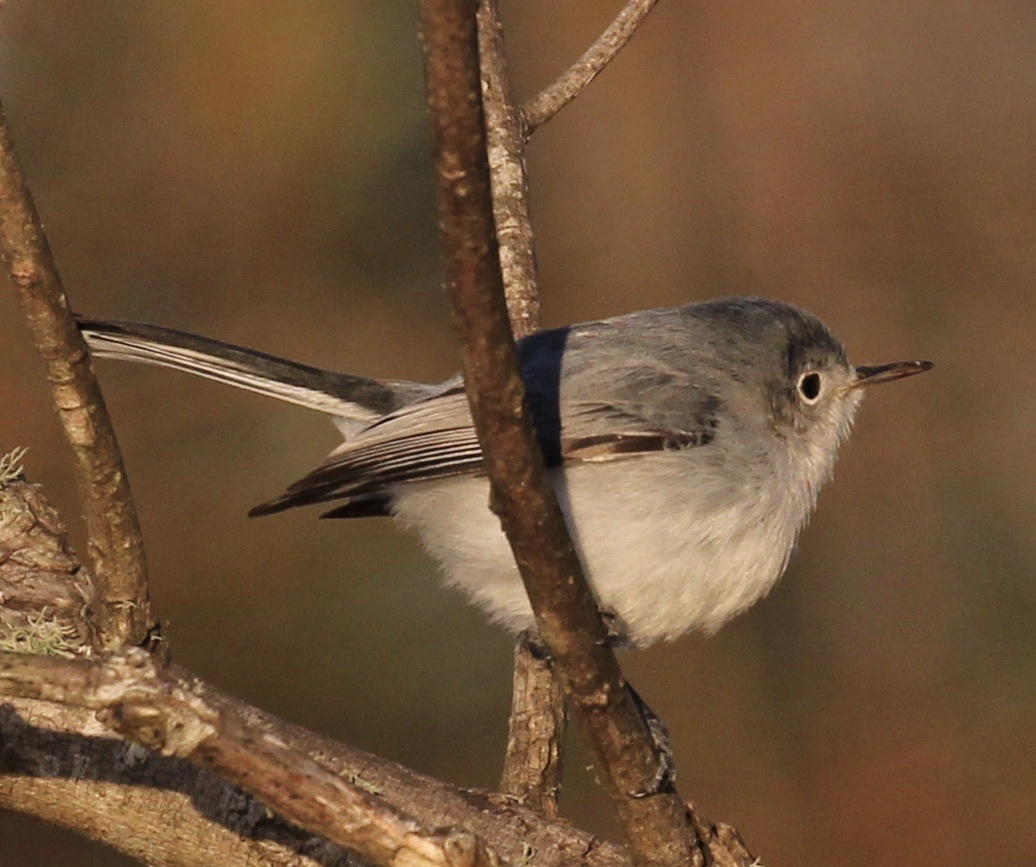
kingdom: Animalia
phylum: Chordata
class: Aves
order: Passeriformes
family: Polioptilidae
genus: Polioptila
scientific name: Polioptila caerulea
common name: Blue-gray gnatcatcher
